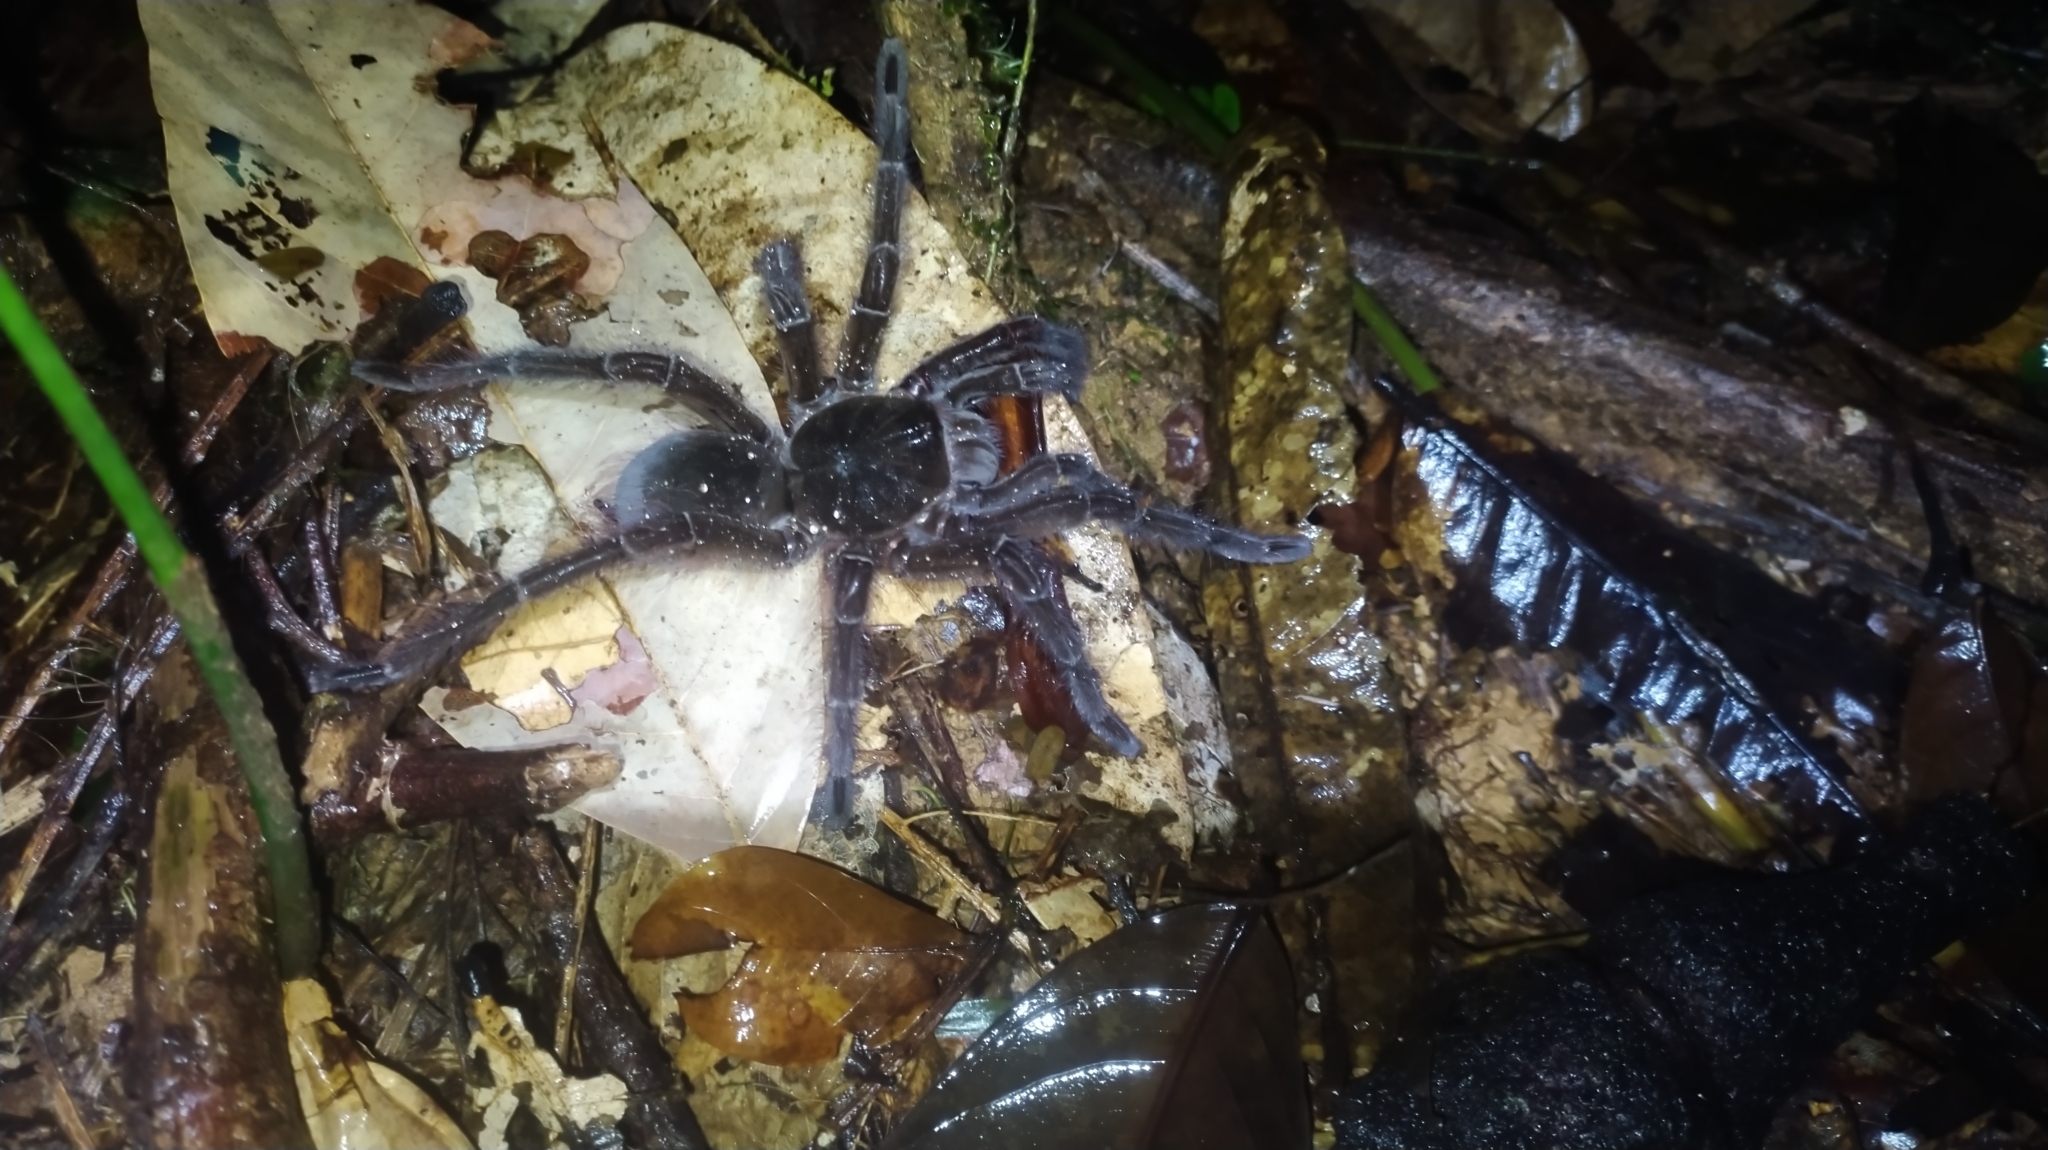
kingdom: Animalia
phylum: Arthropoda
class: Arachnida
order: Araneae
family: Theraphosidae
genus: Theraphosa
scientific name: Theraphosa blondi
